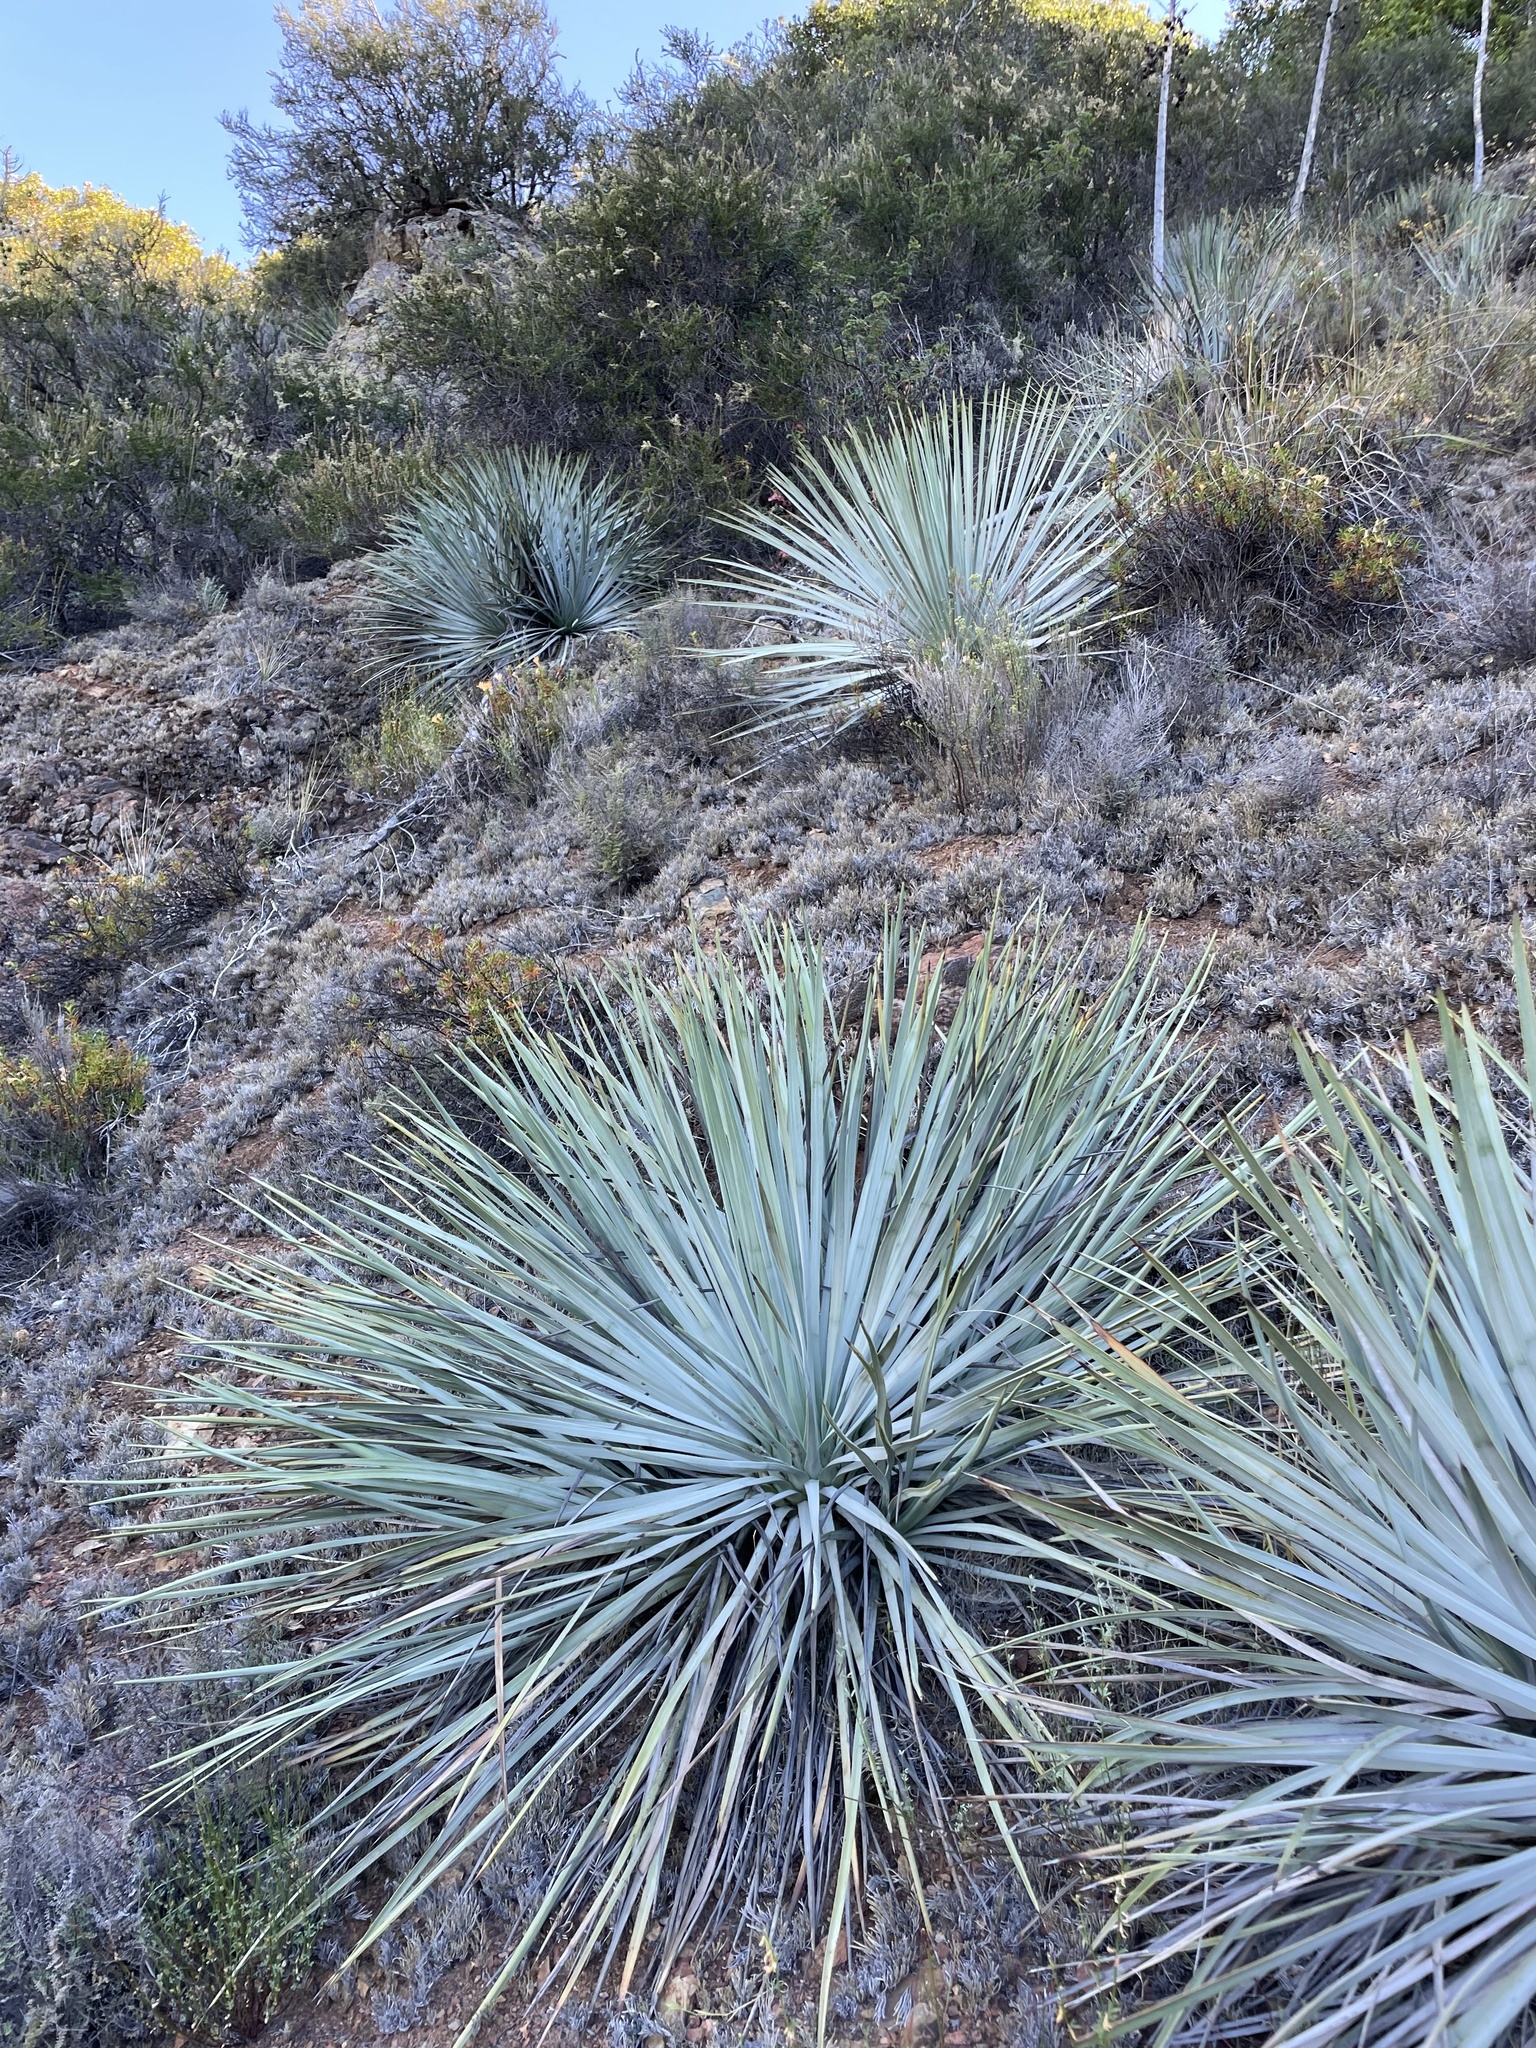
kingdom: Plantae
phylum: Tracheophyta
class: Liliopsida
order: Asparagales
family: Asparagaceae
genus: Hesperoyucca
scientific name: Hesperoyucca whipplei
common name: Our lord's-candle
